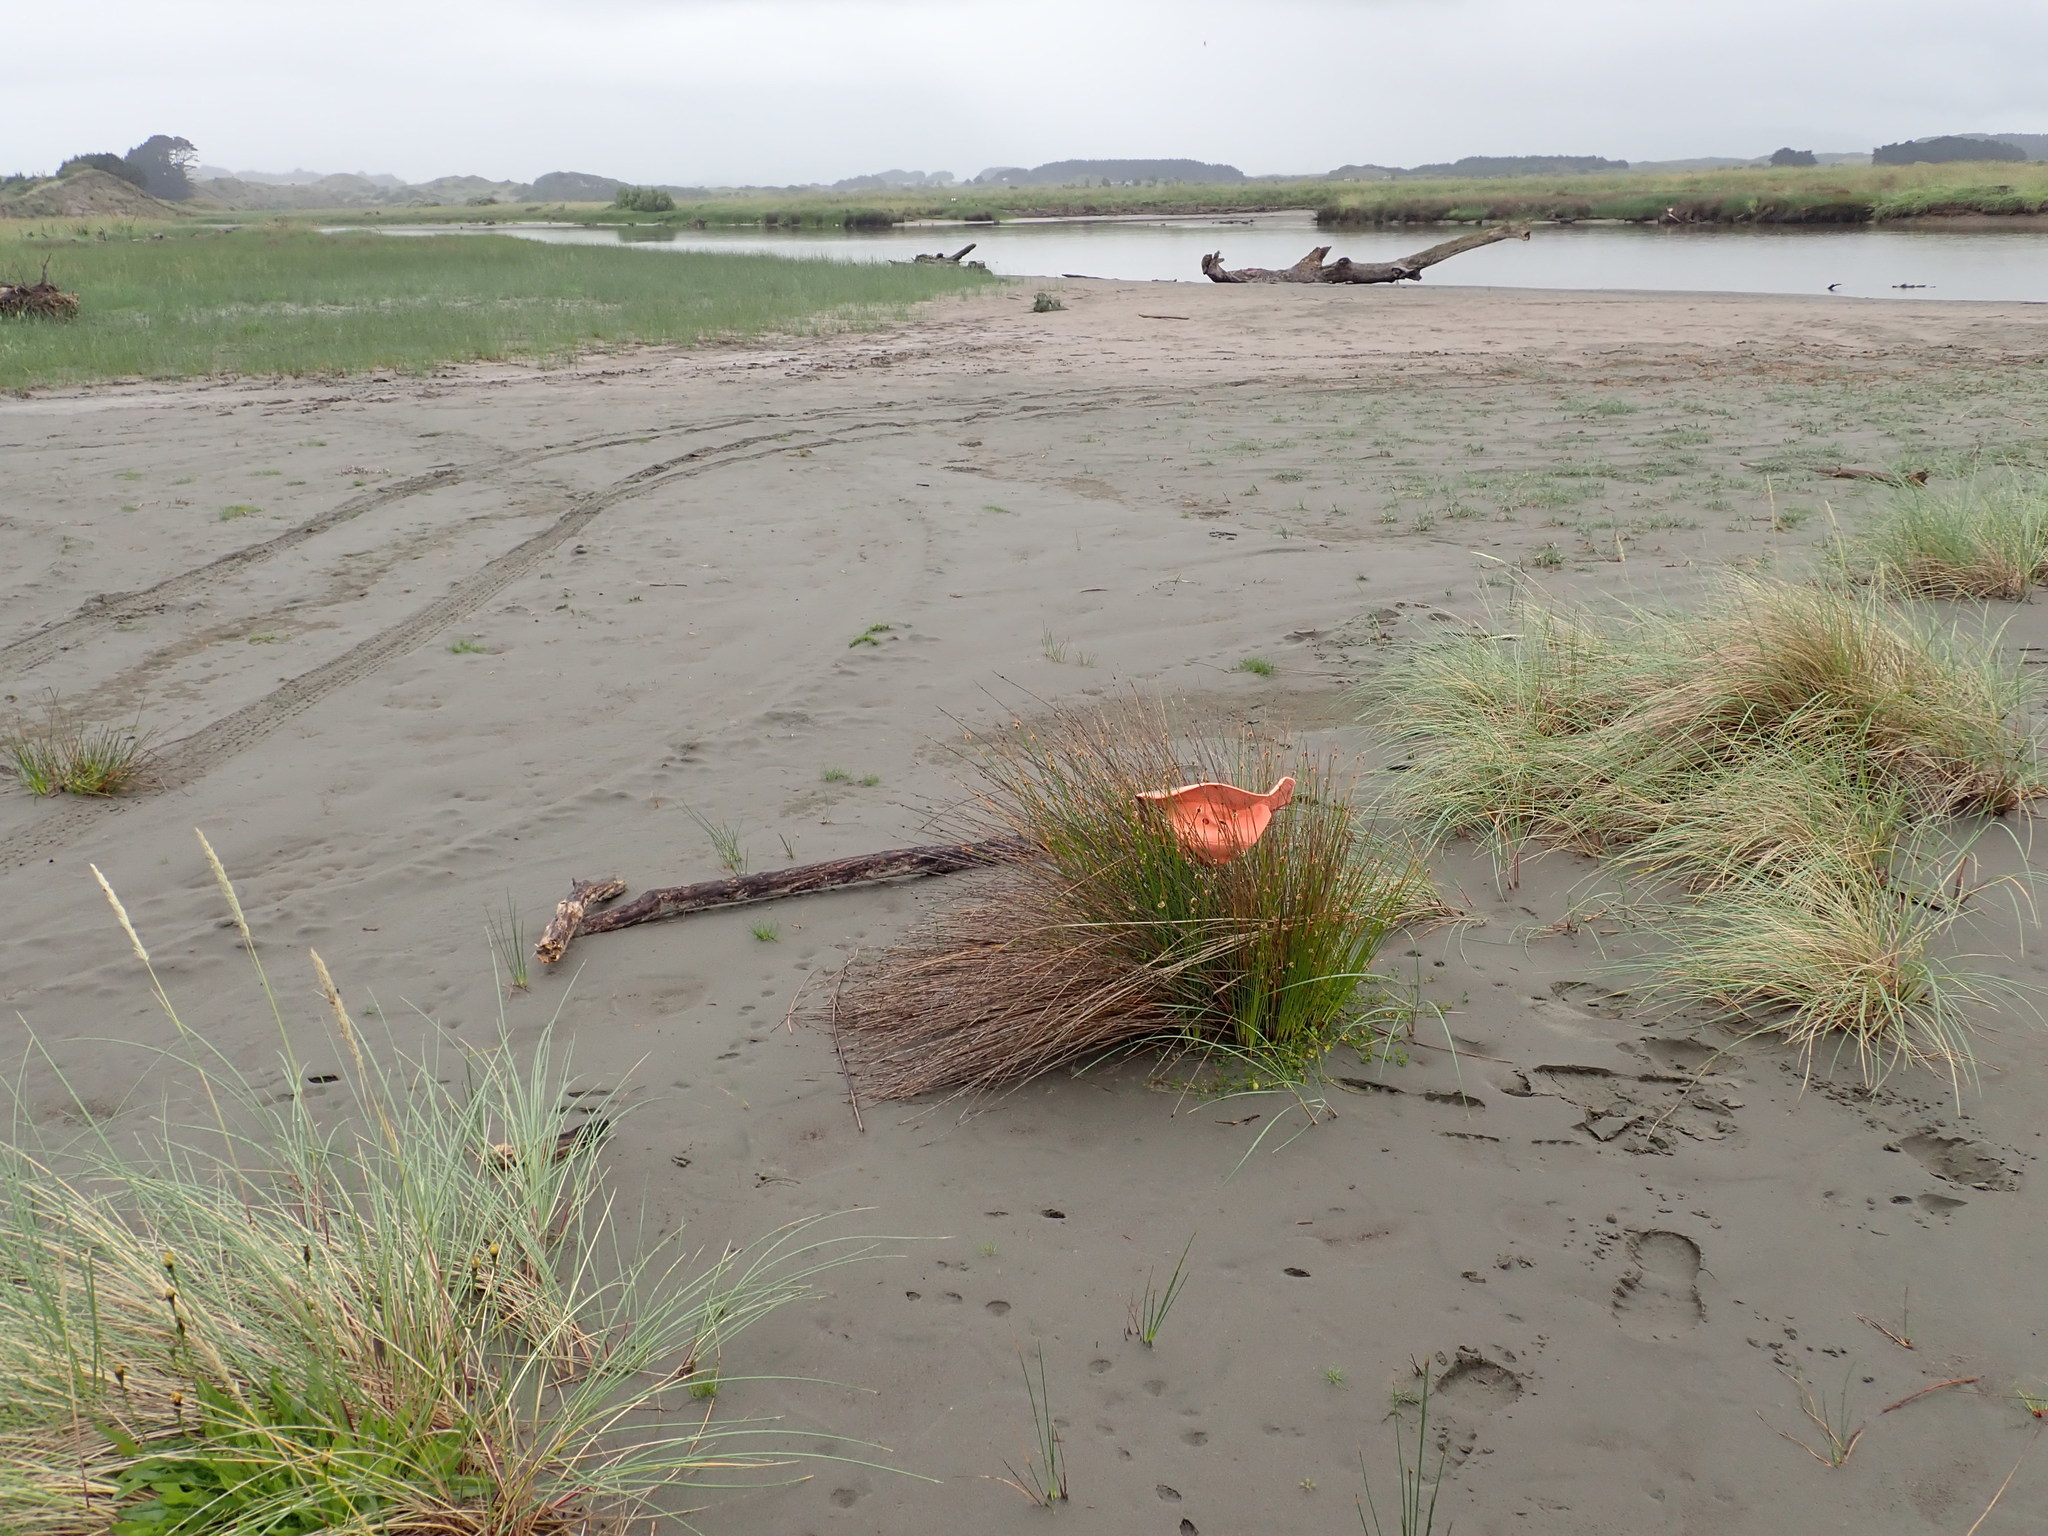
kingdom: Plantae
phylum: Tracheophyta
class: Magnoliopsida
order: Apiales
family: Apiaceae
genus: Apium
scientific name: Apium prostratum
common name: Prostrate marshwort
